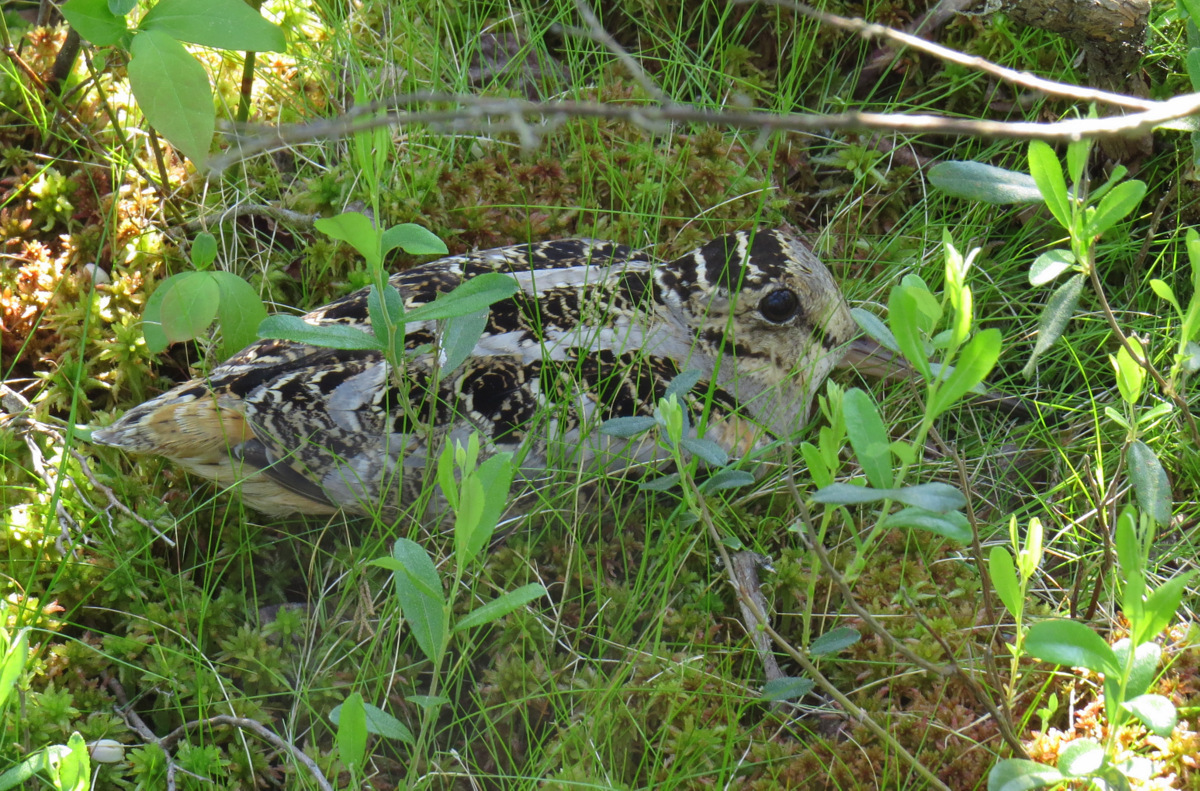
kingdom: Animalia
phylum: Chordata
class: Aves
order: Charadriiformes
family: Scolopacidae
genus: Scolopax
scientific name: Scolopax minor
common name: American woodcock
